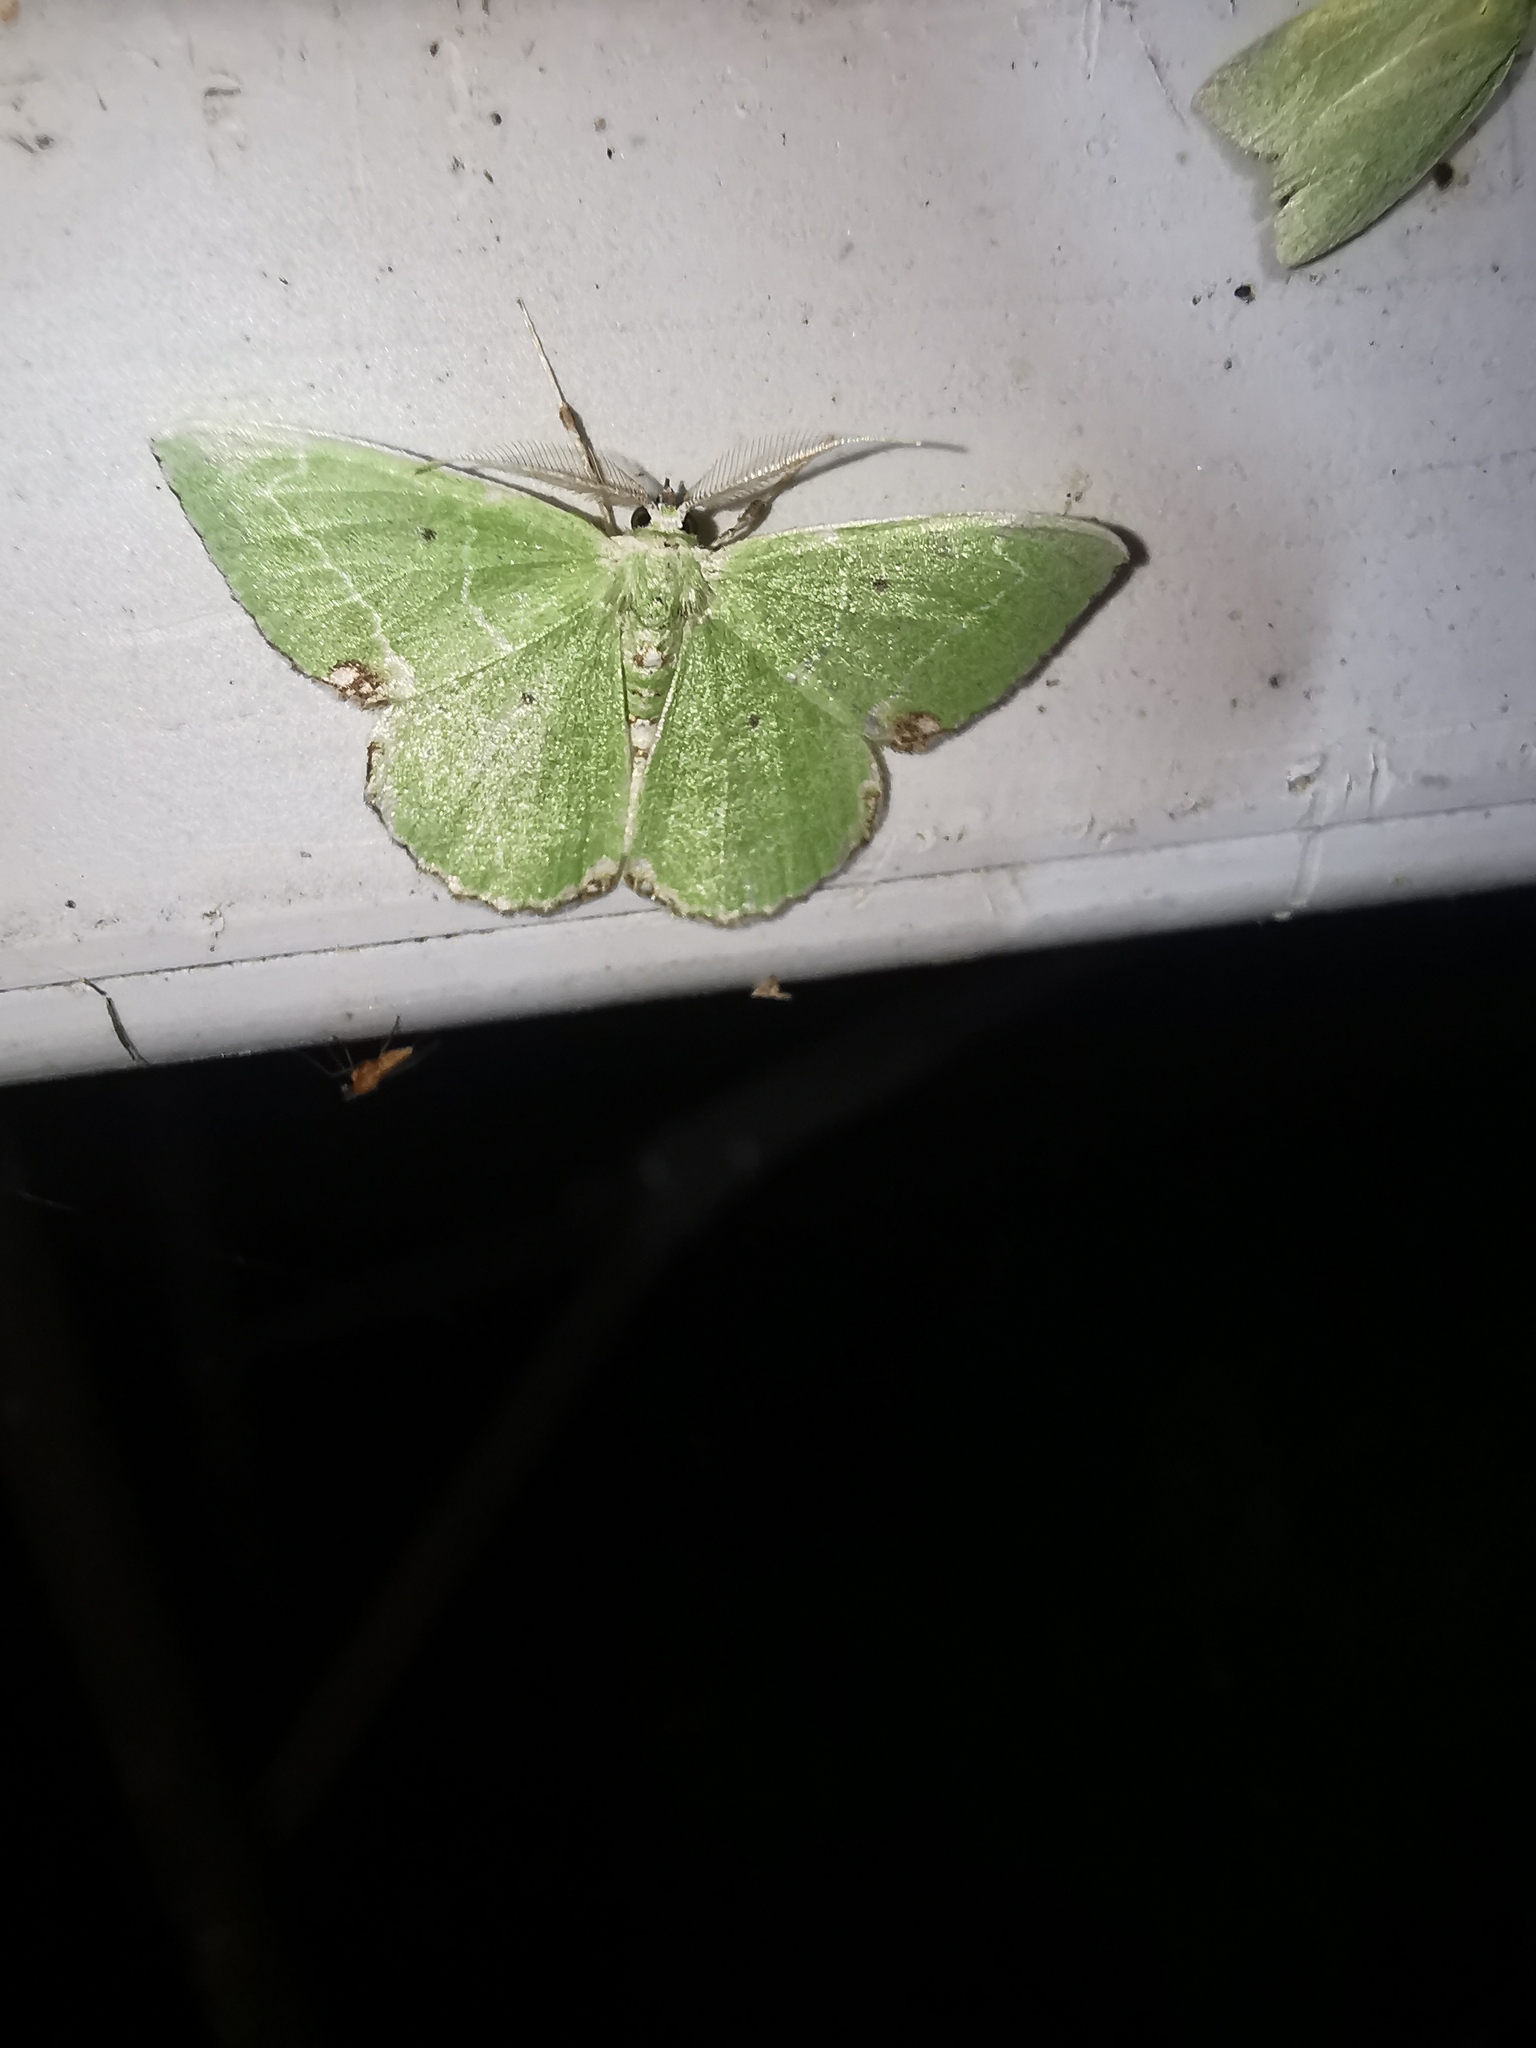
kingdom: Animalia
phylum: Arthropoda
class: Insecta
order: Lepidoptera
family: Geometridae
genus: Proteuchloris
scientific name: Proteuchloris neriaria
